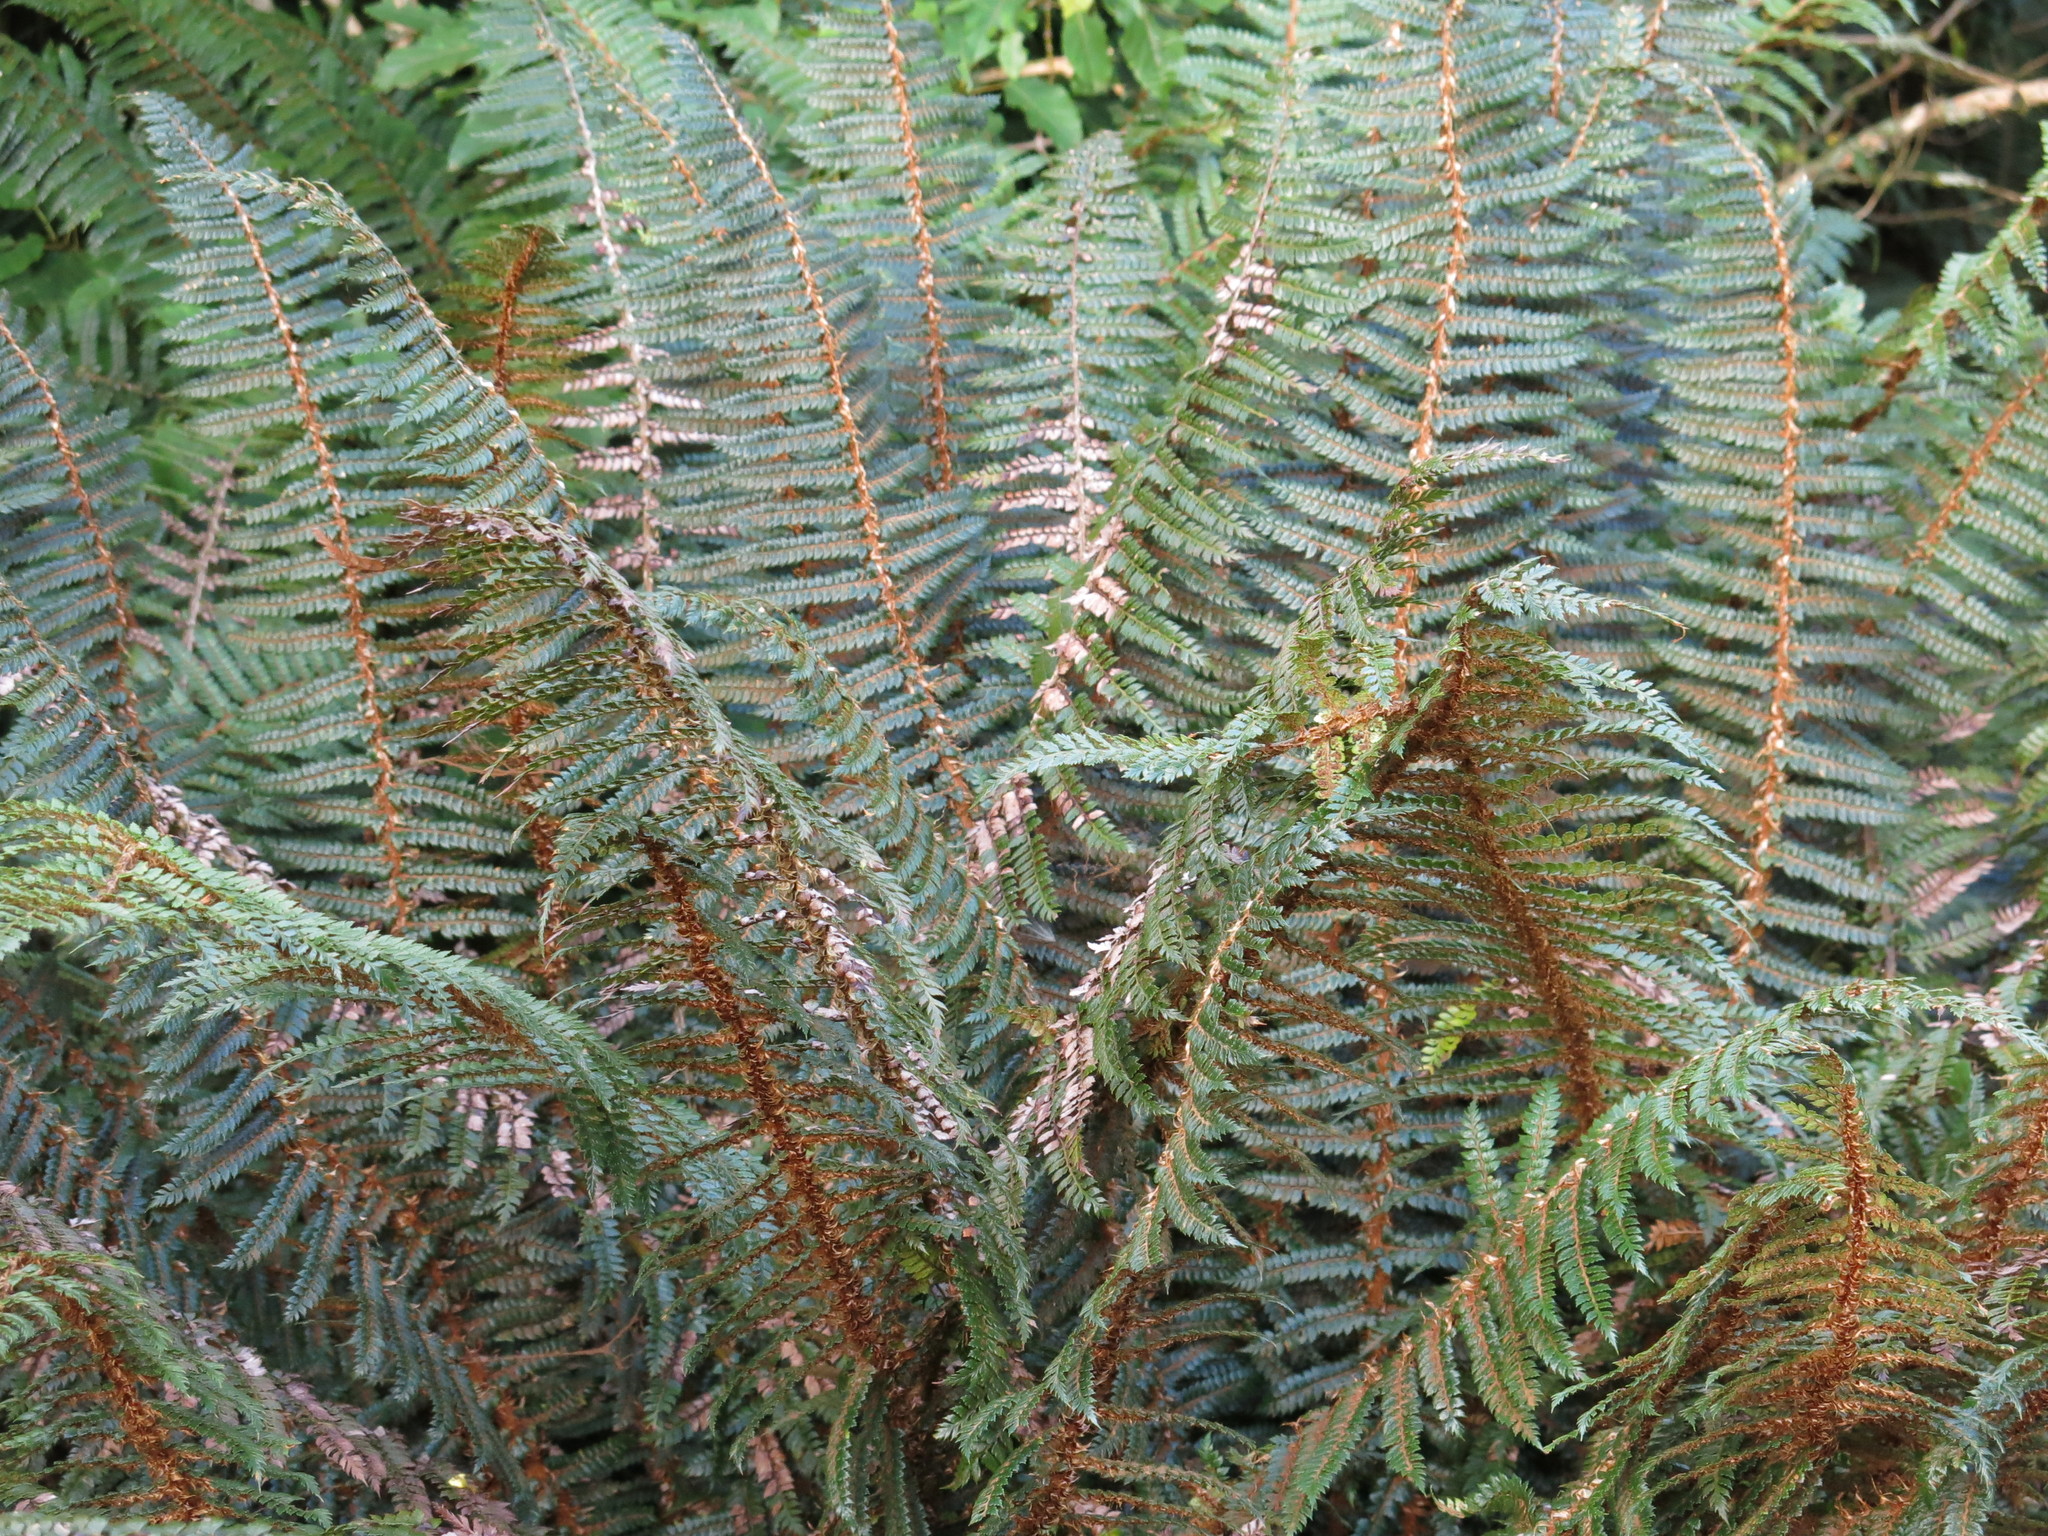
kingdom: Plantae
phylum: Tracheophyta
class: Polypodiopsida
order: Polypodiales
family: Dryopteridaceae
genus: Polystichum
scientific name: Polystichum vestitum
